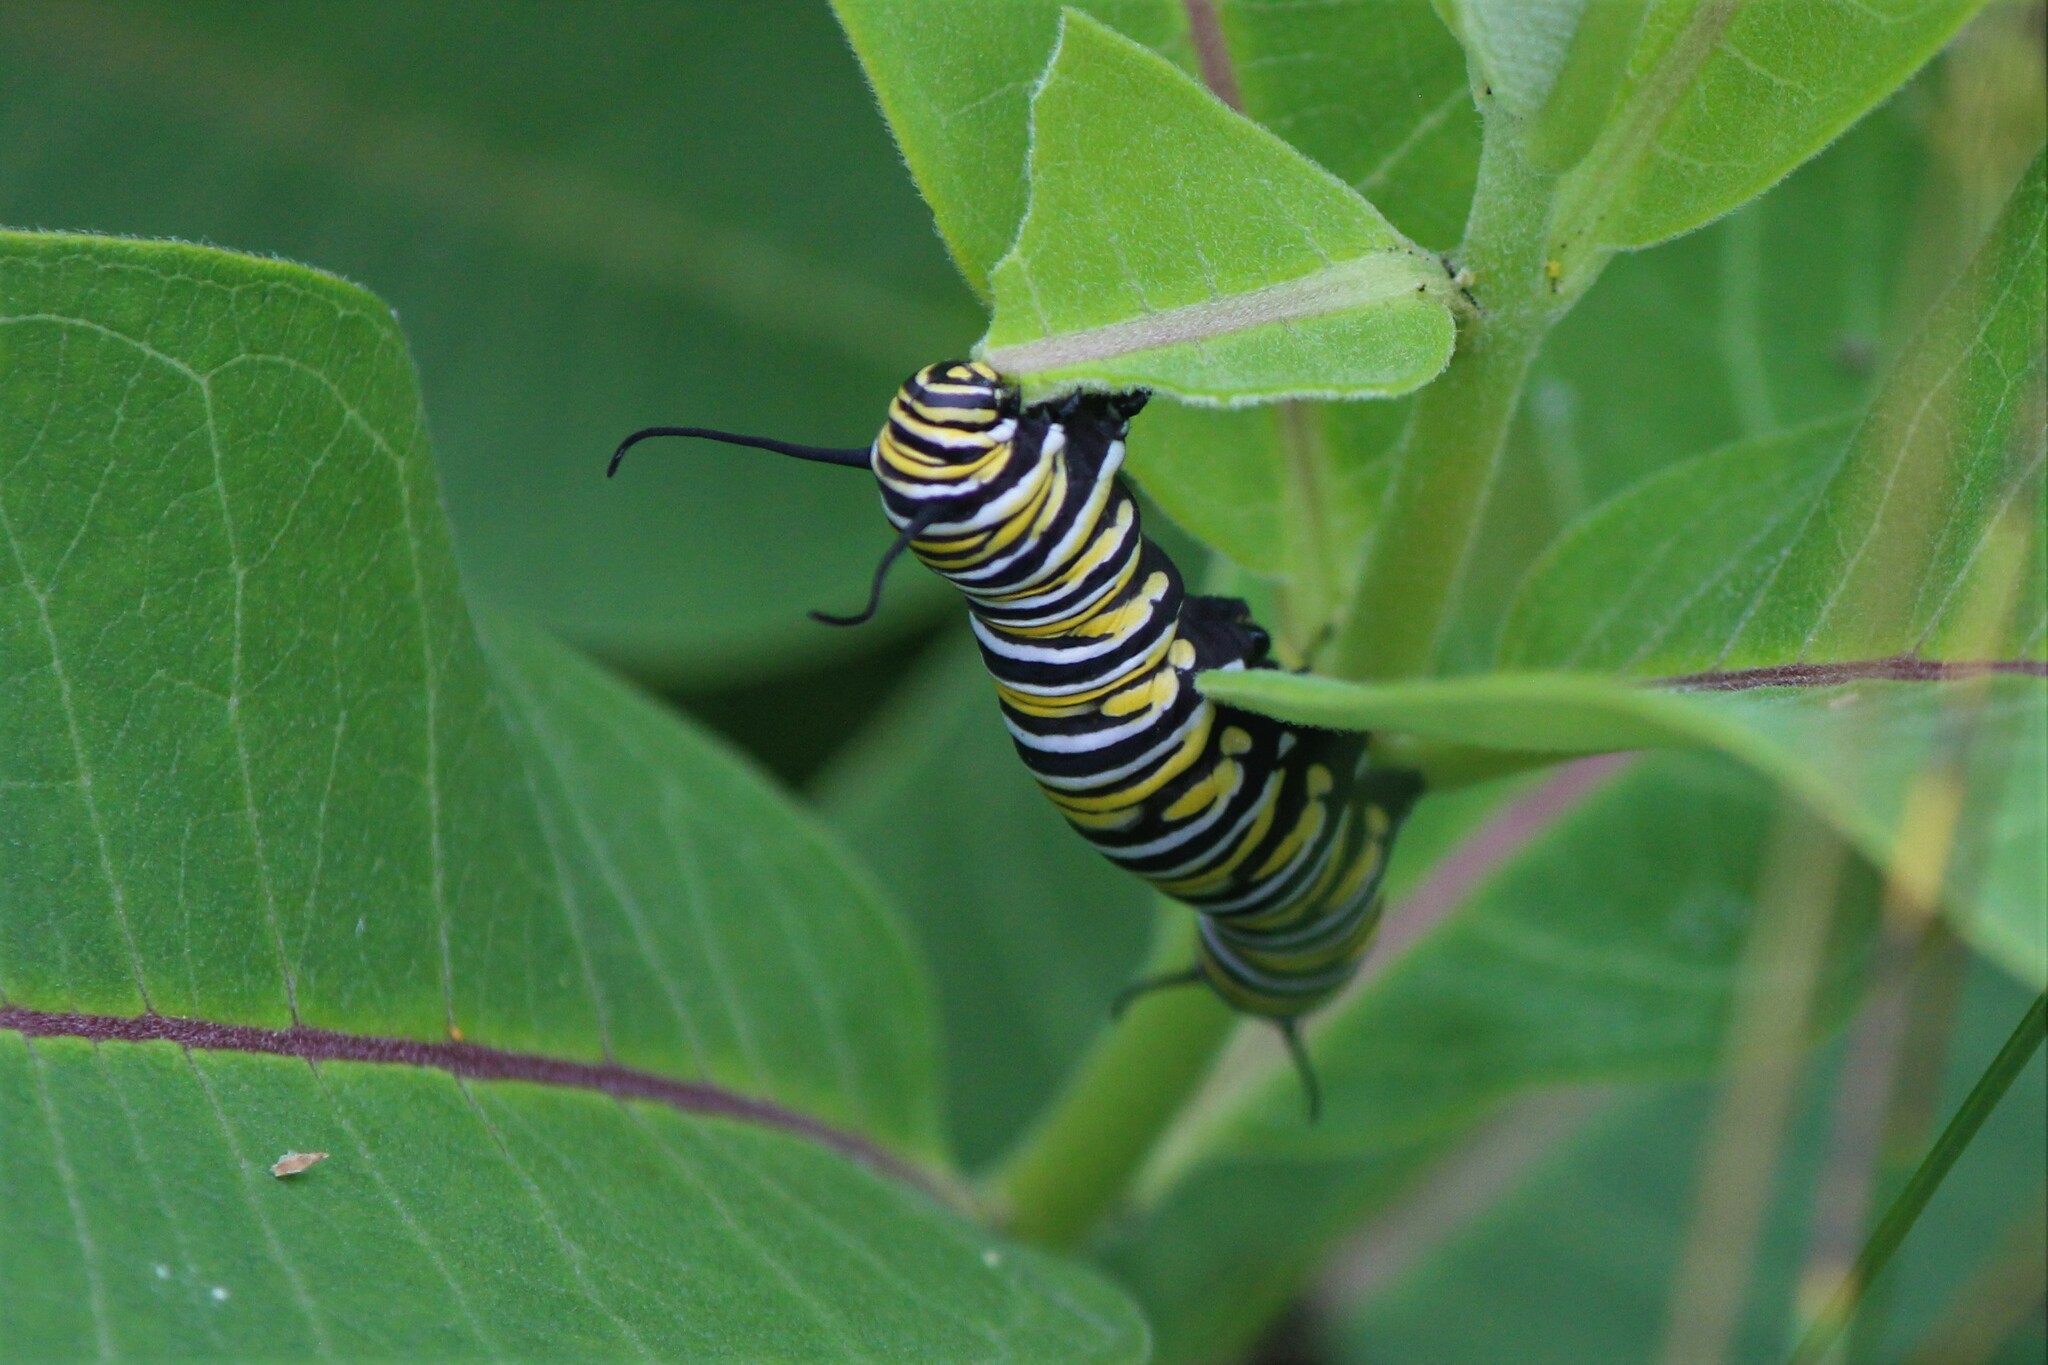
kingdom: Animalia
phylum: Arthropoda
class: Insecta
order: Lepidoptera
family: Nymphalidae
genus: Danaus
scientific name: Danaus plexippus
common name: Monarch
